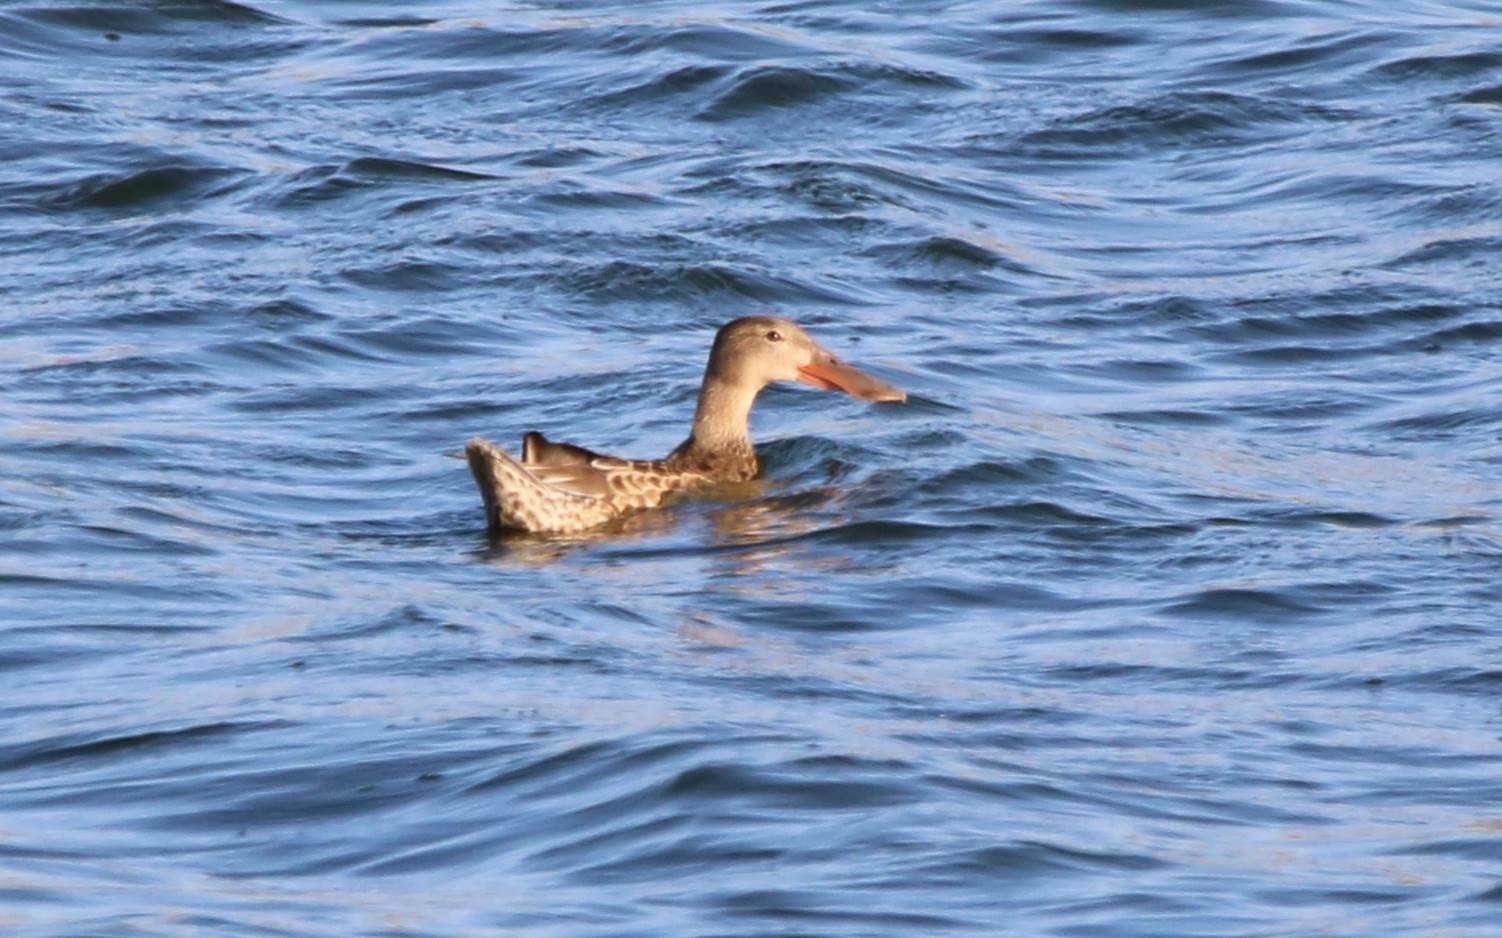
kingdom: Animalia
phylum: Chordata
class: Aves
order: Anseriformes
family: Anatidae
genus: Spatula
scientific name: Spatula clypeata
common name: Northern shoveler
